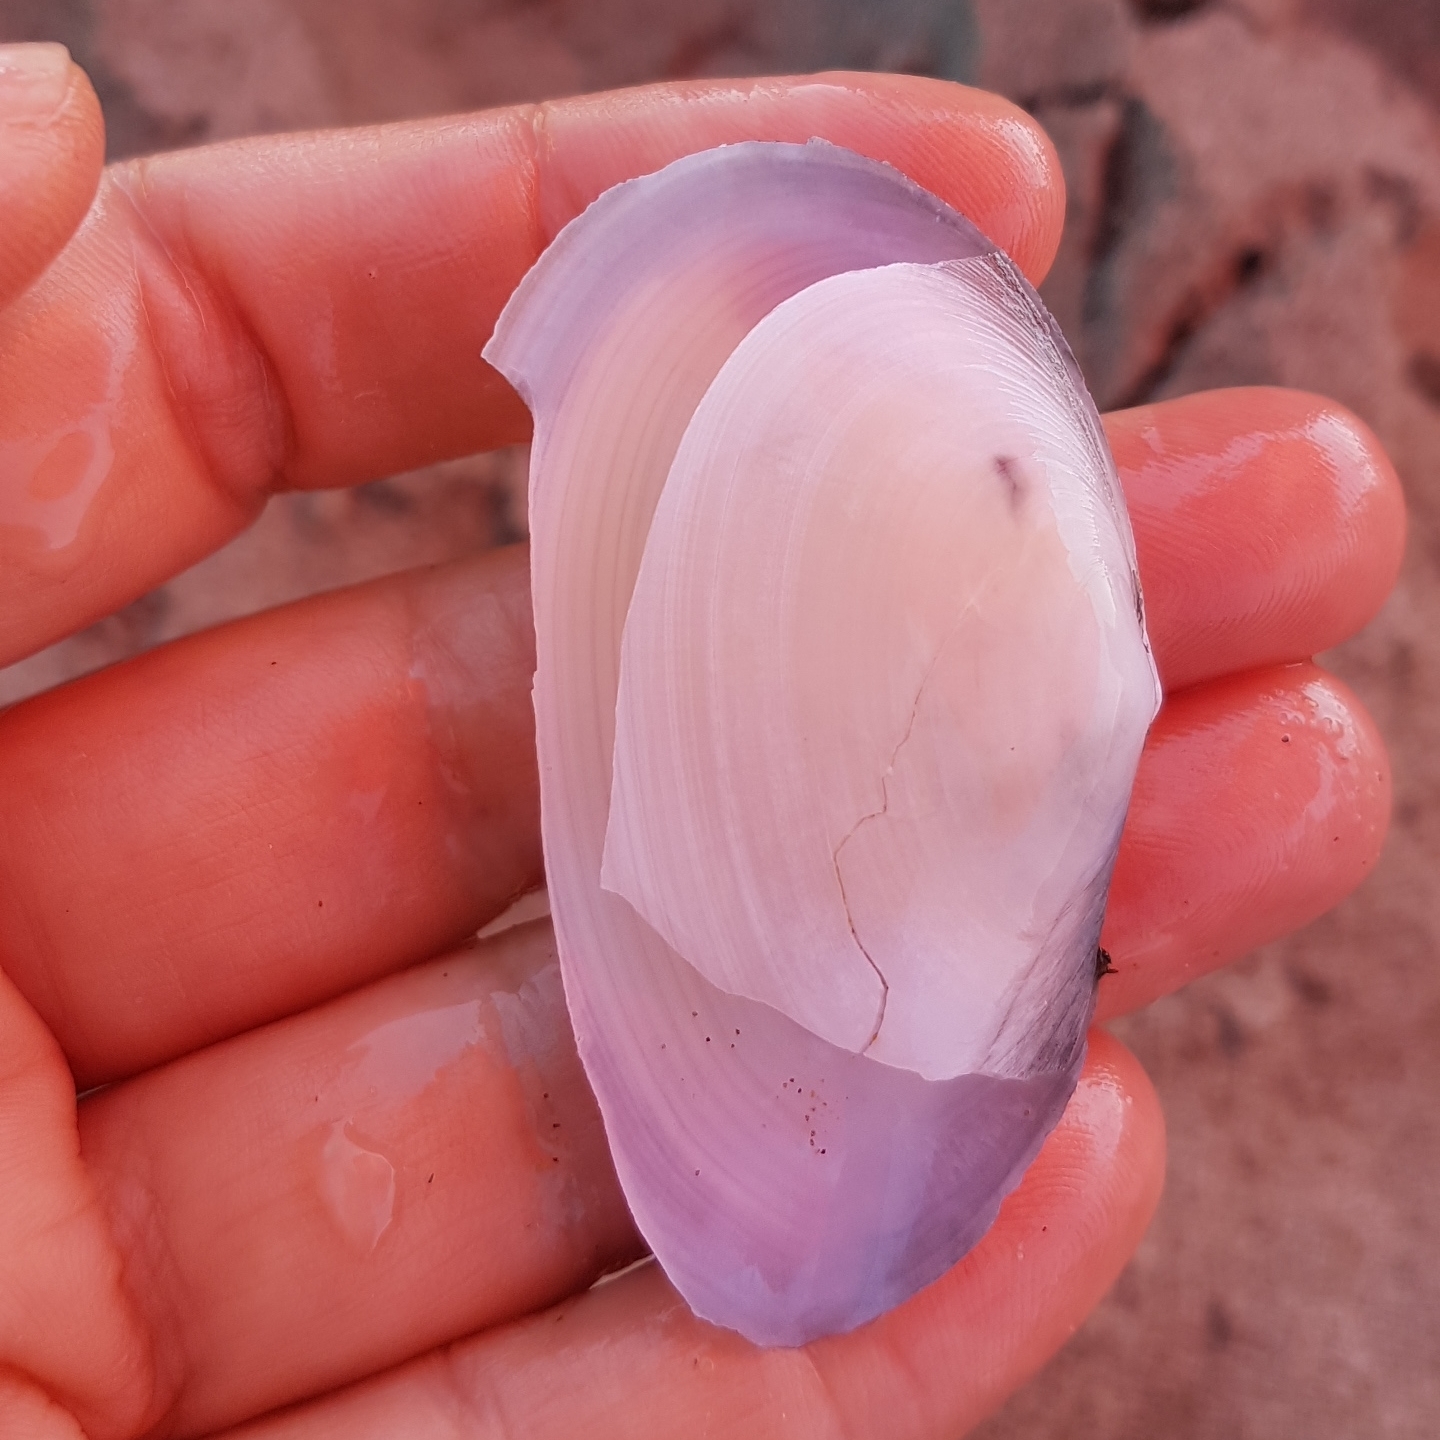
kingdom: Animalia
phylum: Mollusca
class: Bivalvia
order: Cardiida
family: Tellinidae
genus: Peronaea
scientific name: Peronaea planata
